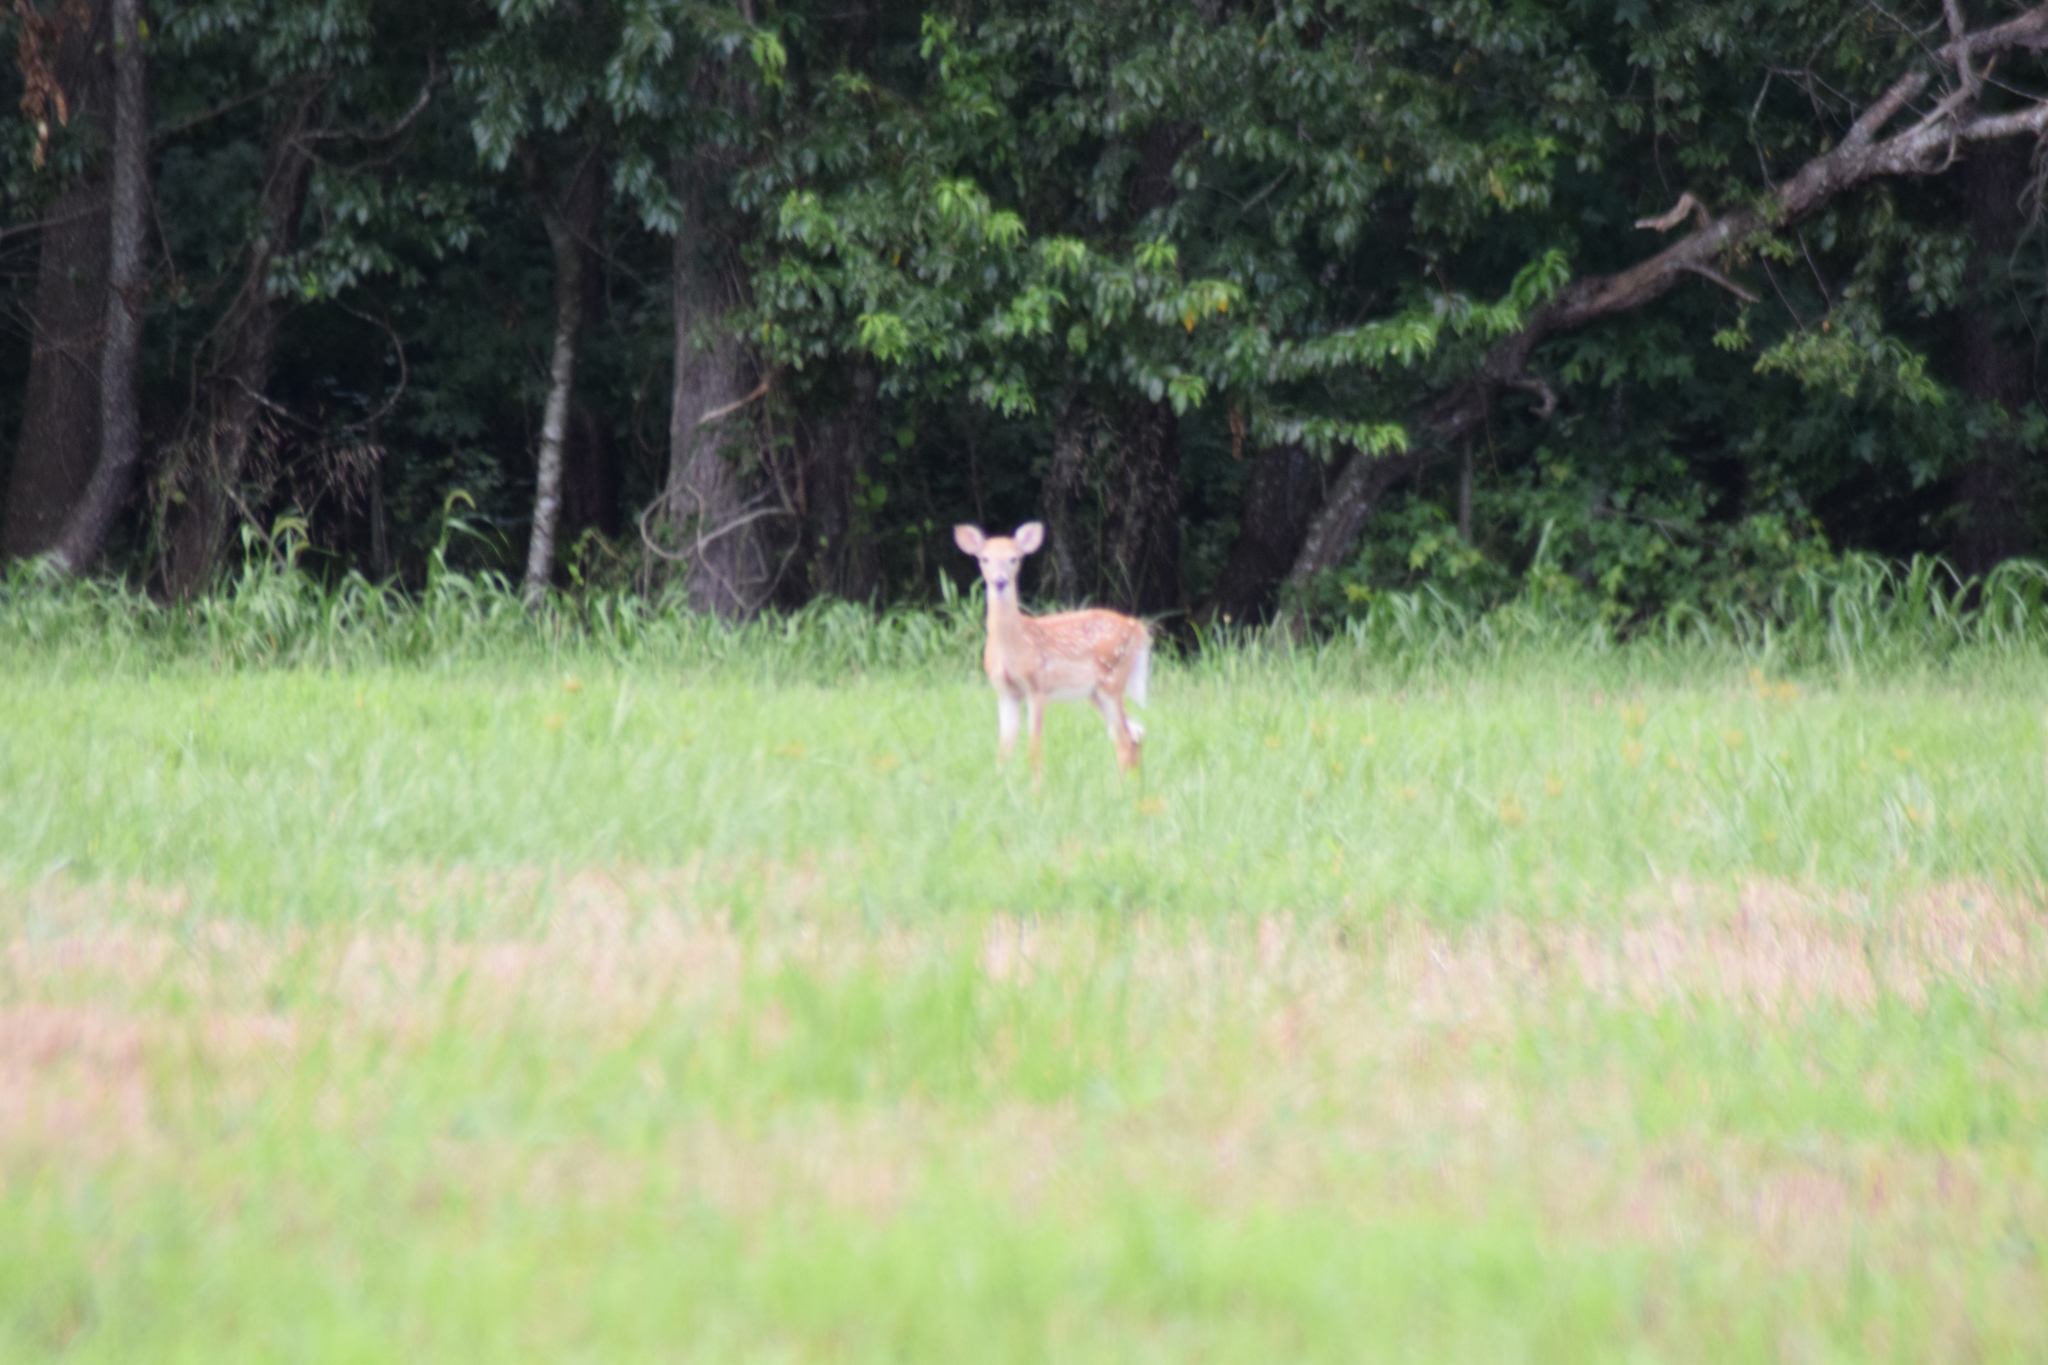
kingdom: Animalia
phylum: Chordata
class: Mammalia
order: Artiodactyla
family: Cervidae
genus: Odocoileus
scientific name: Odocoileus virginianus
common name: White-tailed deer
